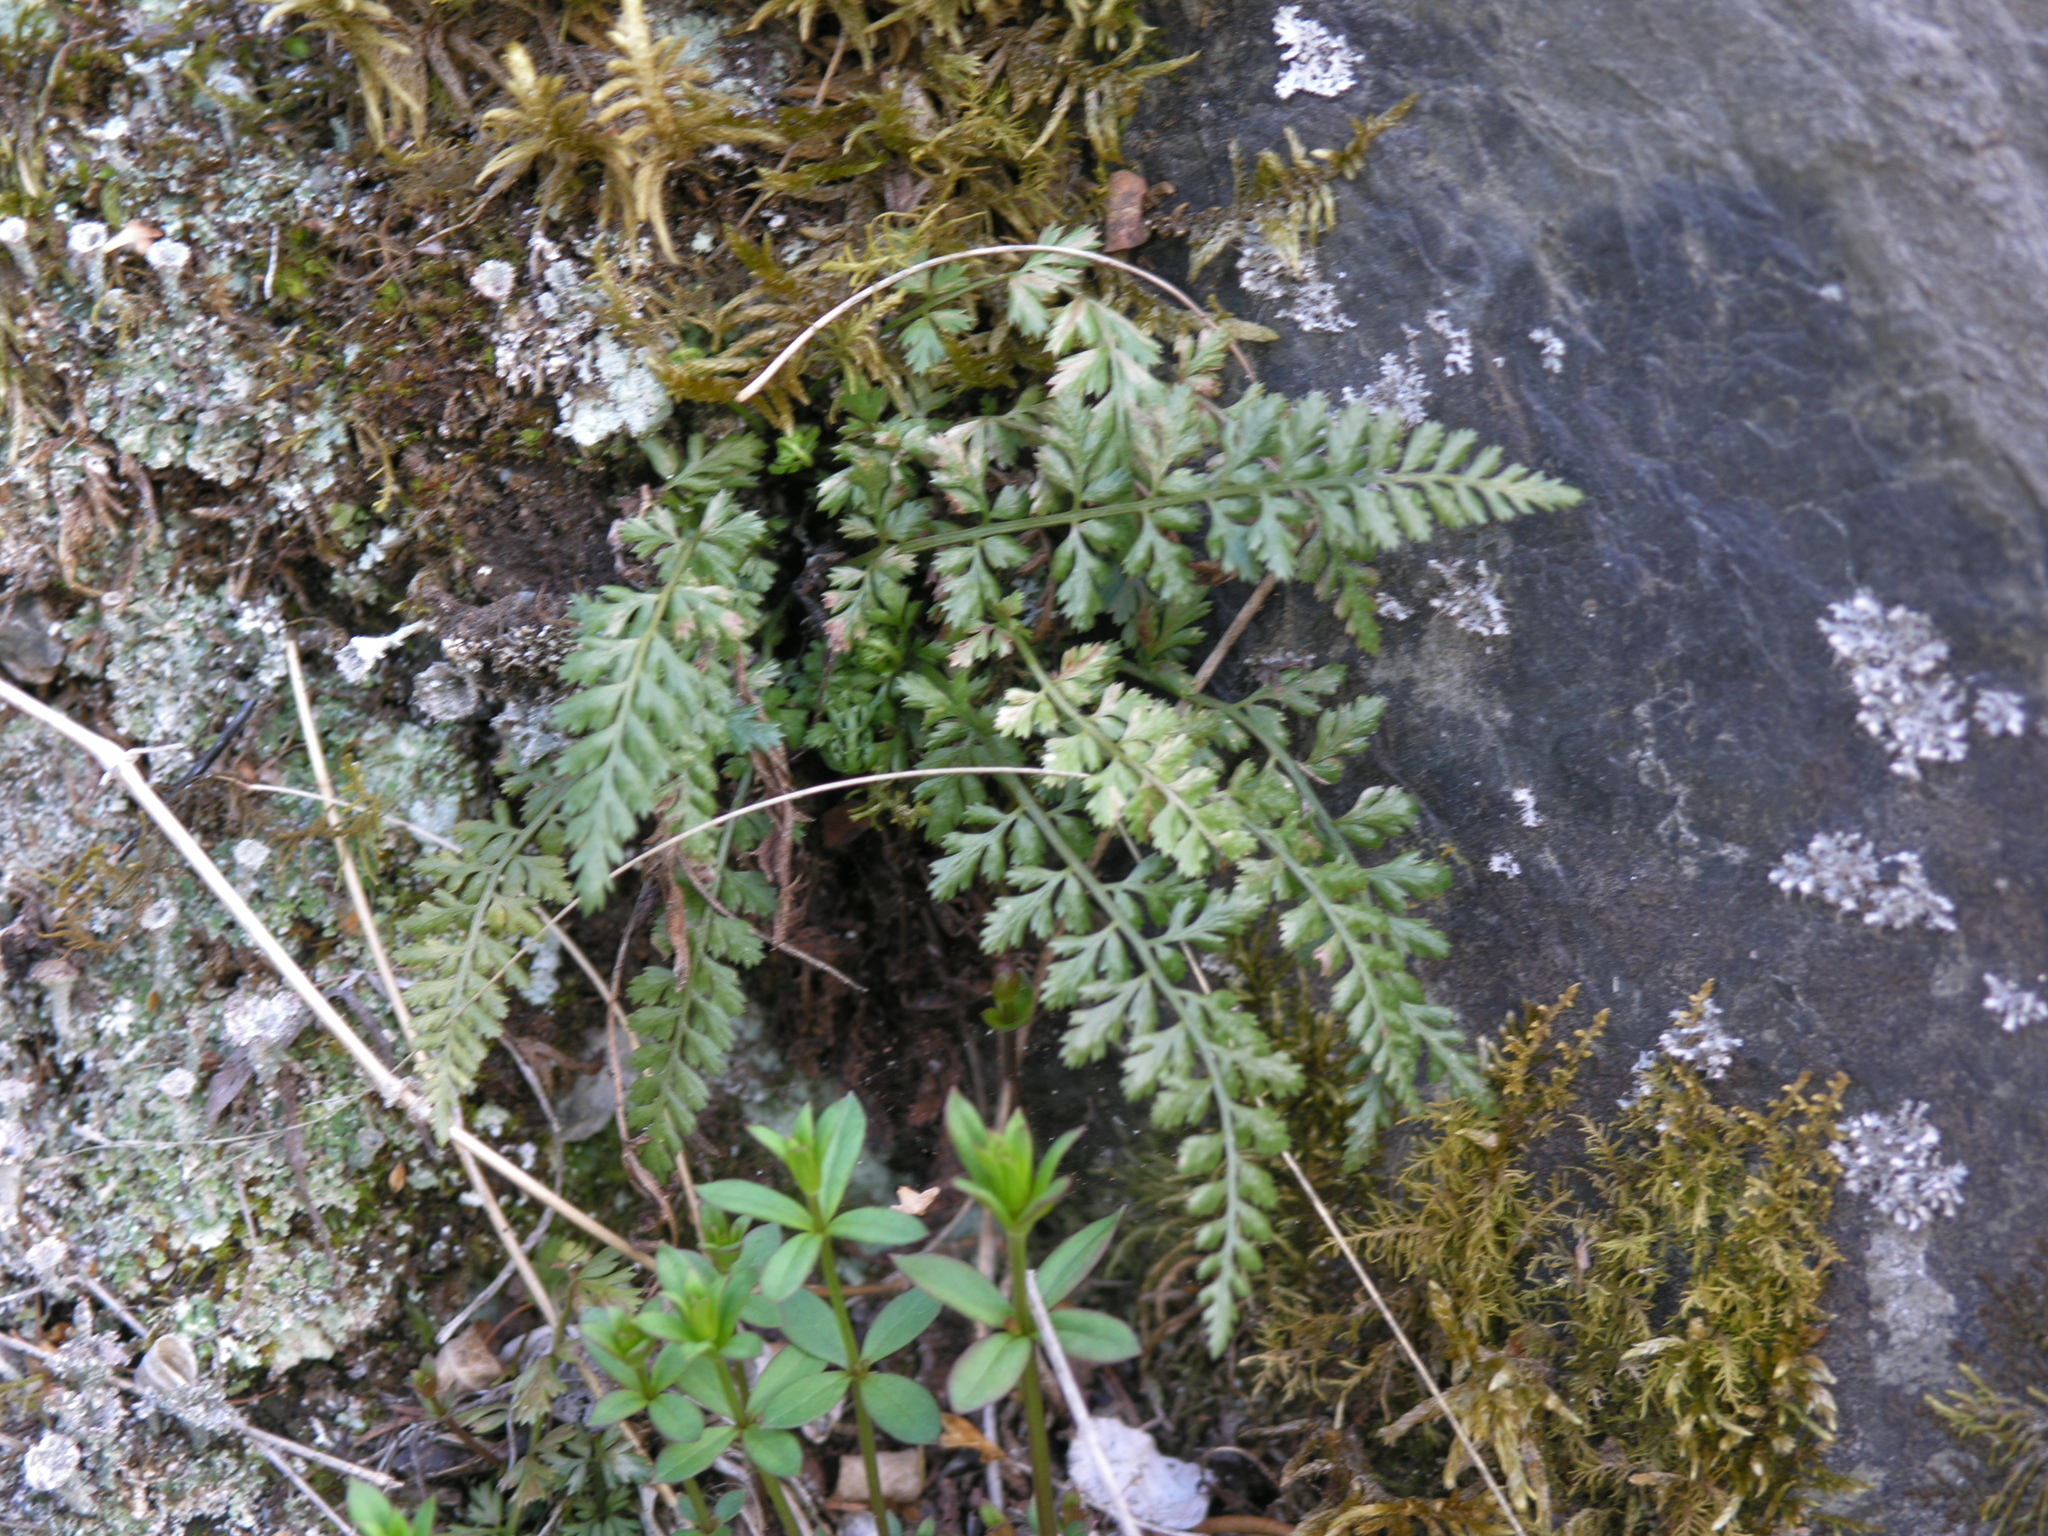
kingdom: Plantae
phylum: Tracheophyta
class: Polypodiopsida
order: Polypodiales
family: Aspleniaceae
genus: Asplenium
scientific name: Asplenium altajense
